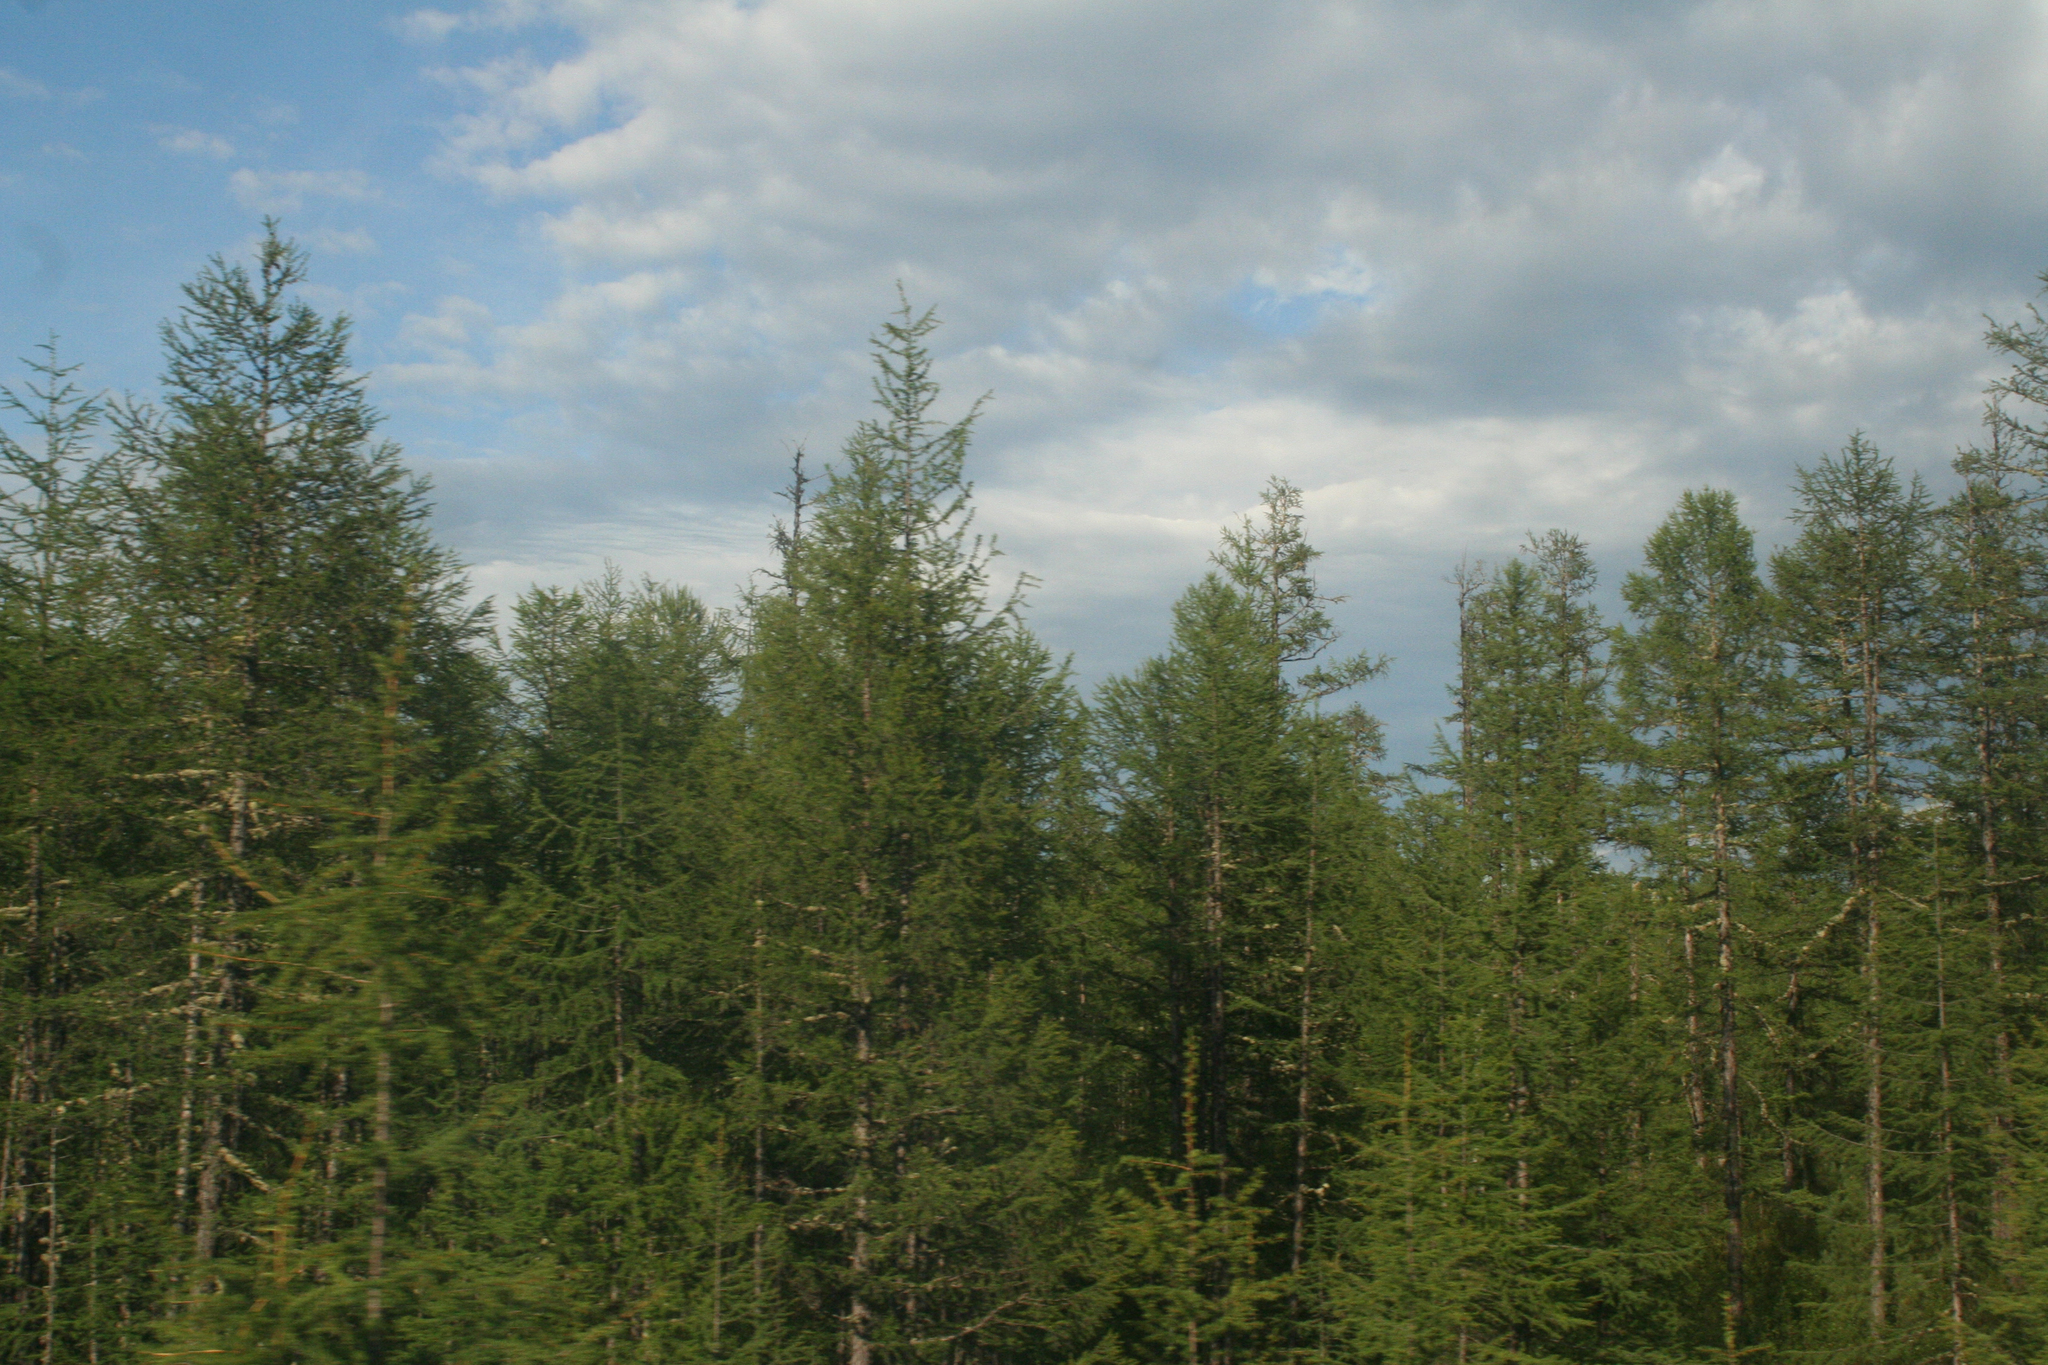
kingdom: Plantae
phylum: Tracheophyta
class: Pinopsida
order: Pinales
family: Pinaceae
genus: Larix
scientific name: Larix gmelinii
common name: Dahurian larch
